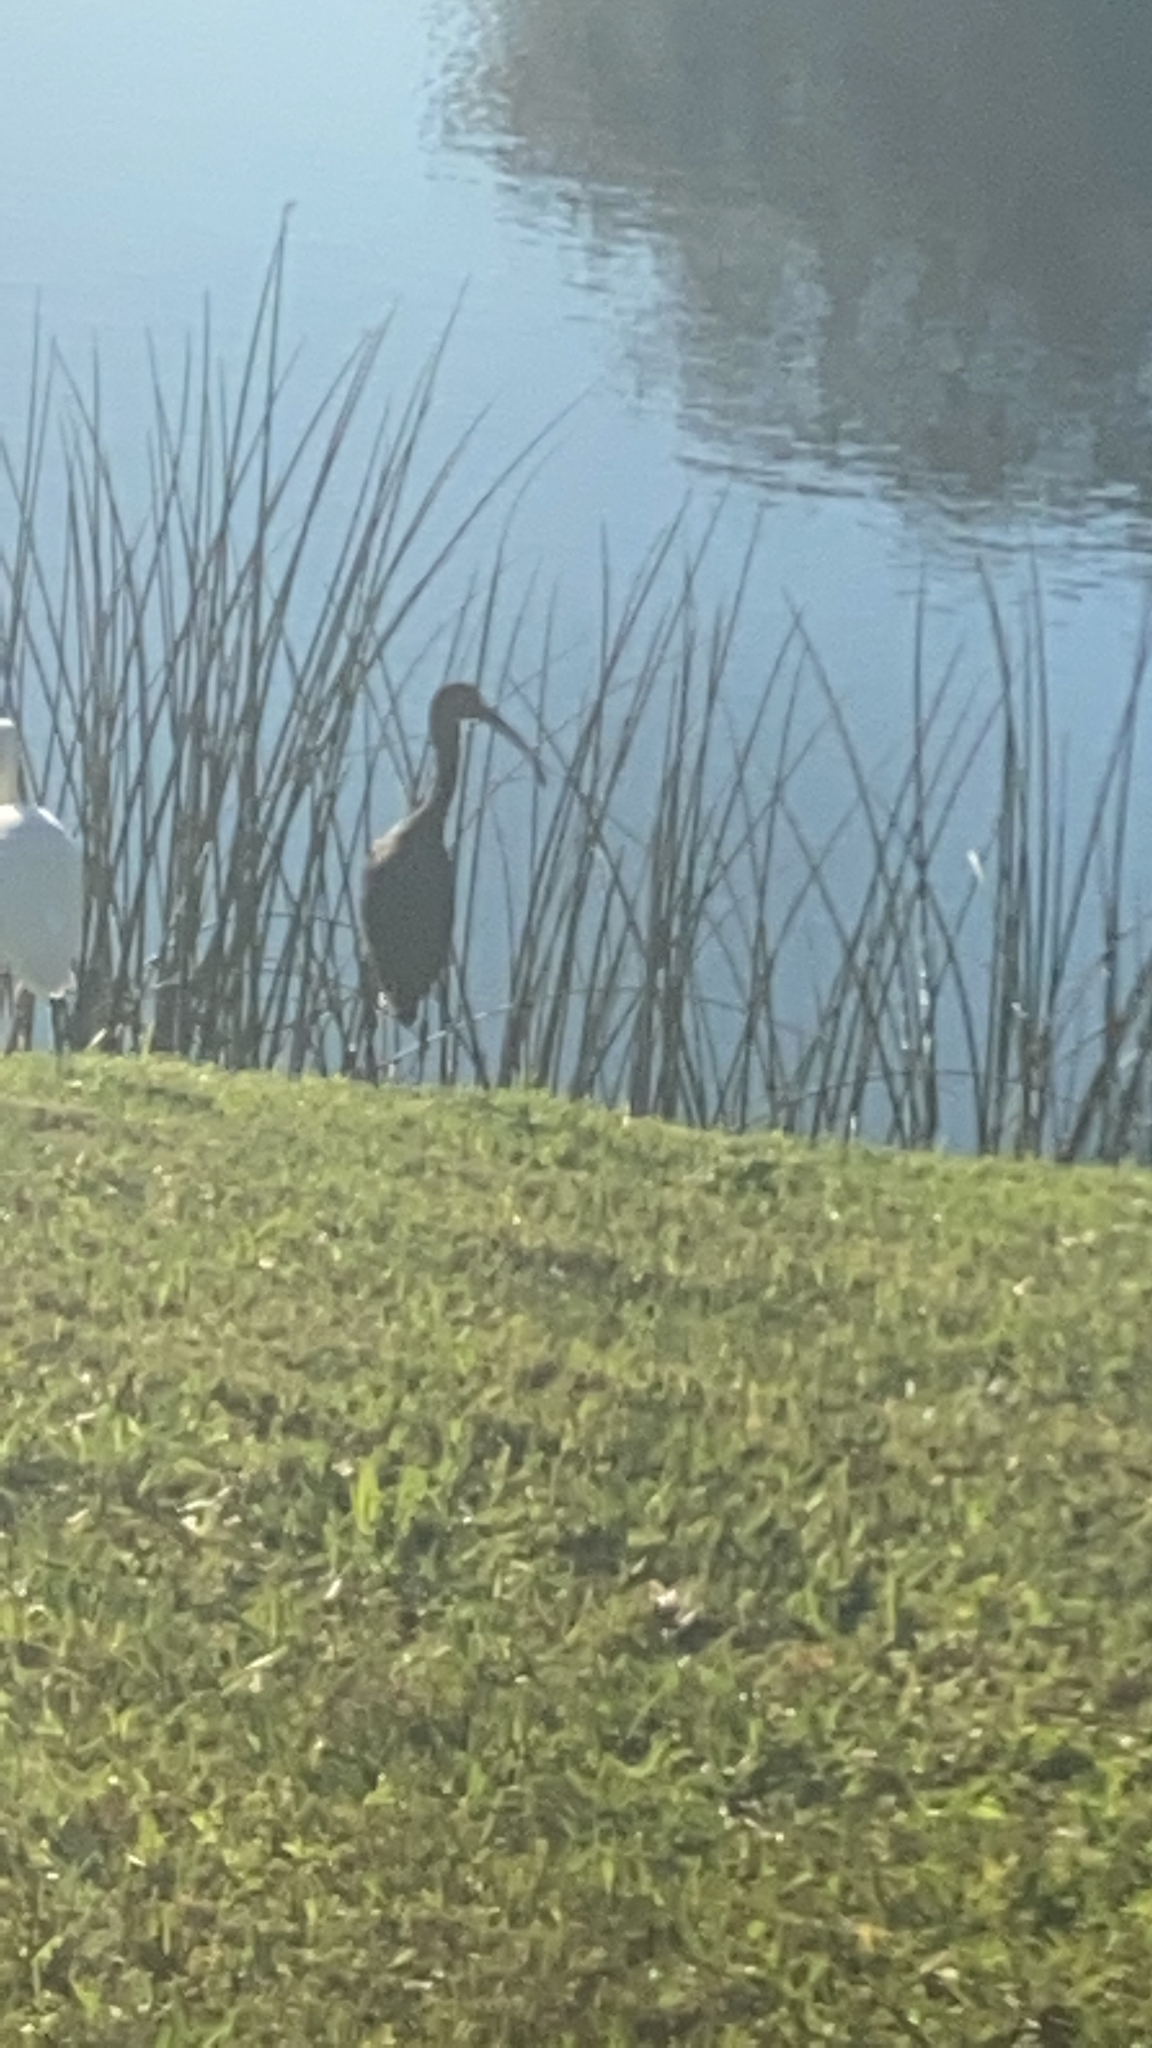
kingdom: Animalia
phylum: Chordata
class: Aves
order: Pelecaniformes
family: Threskiornithidae
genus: Eudocimus
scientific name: Eudocimus albus
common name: White ibis
